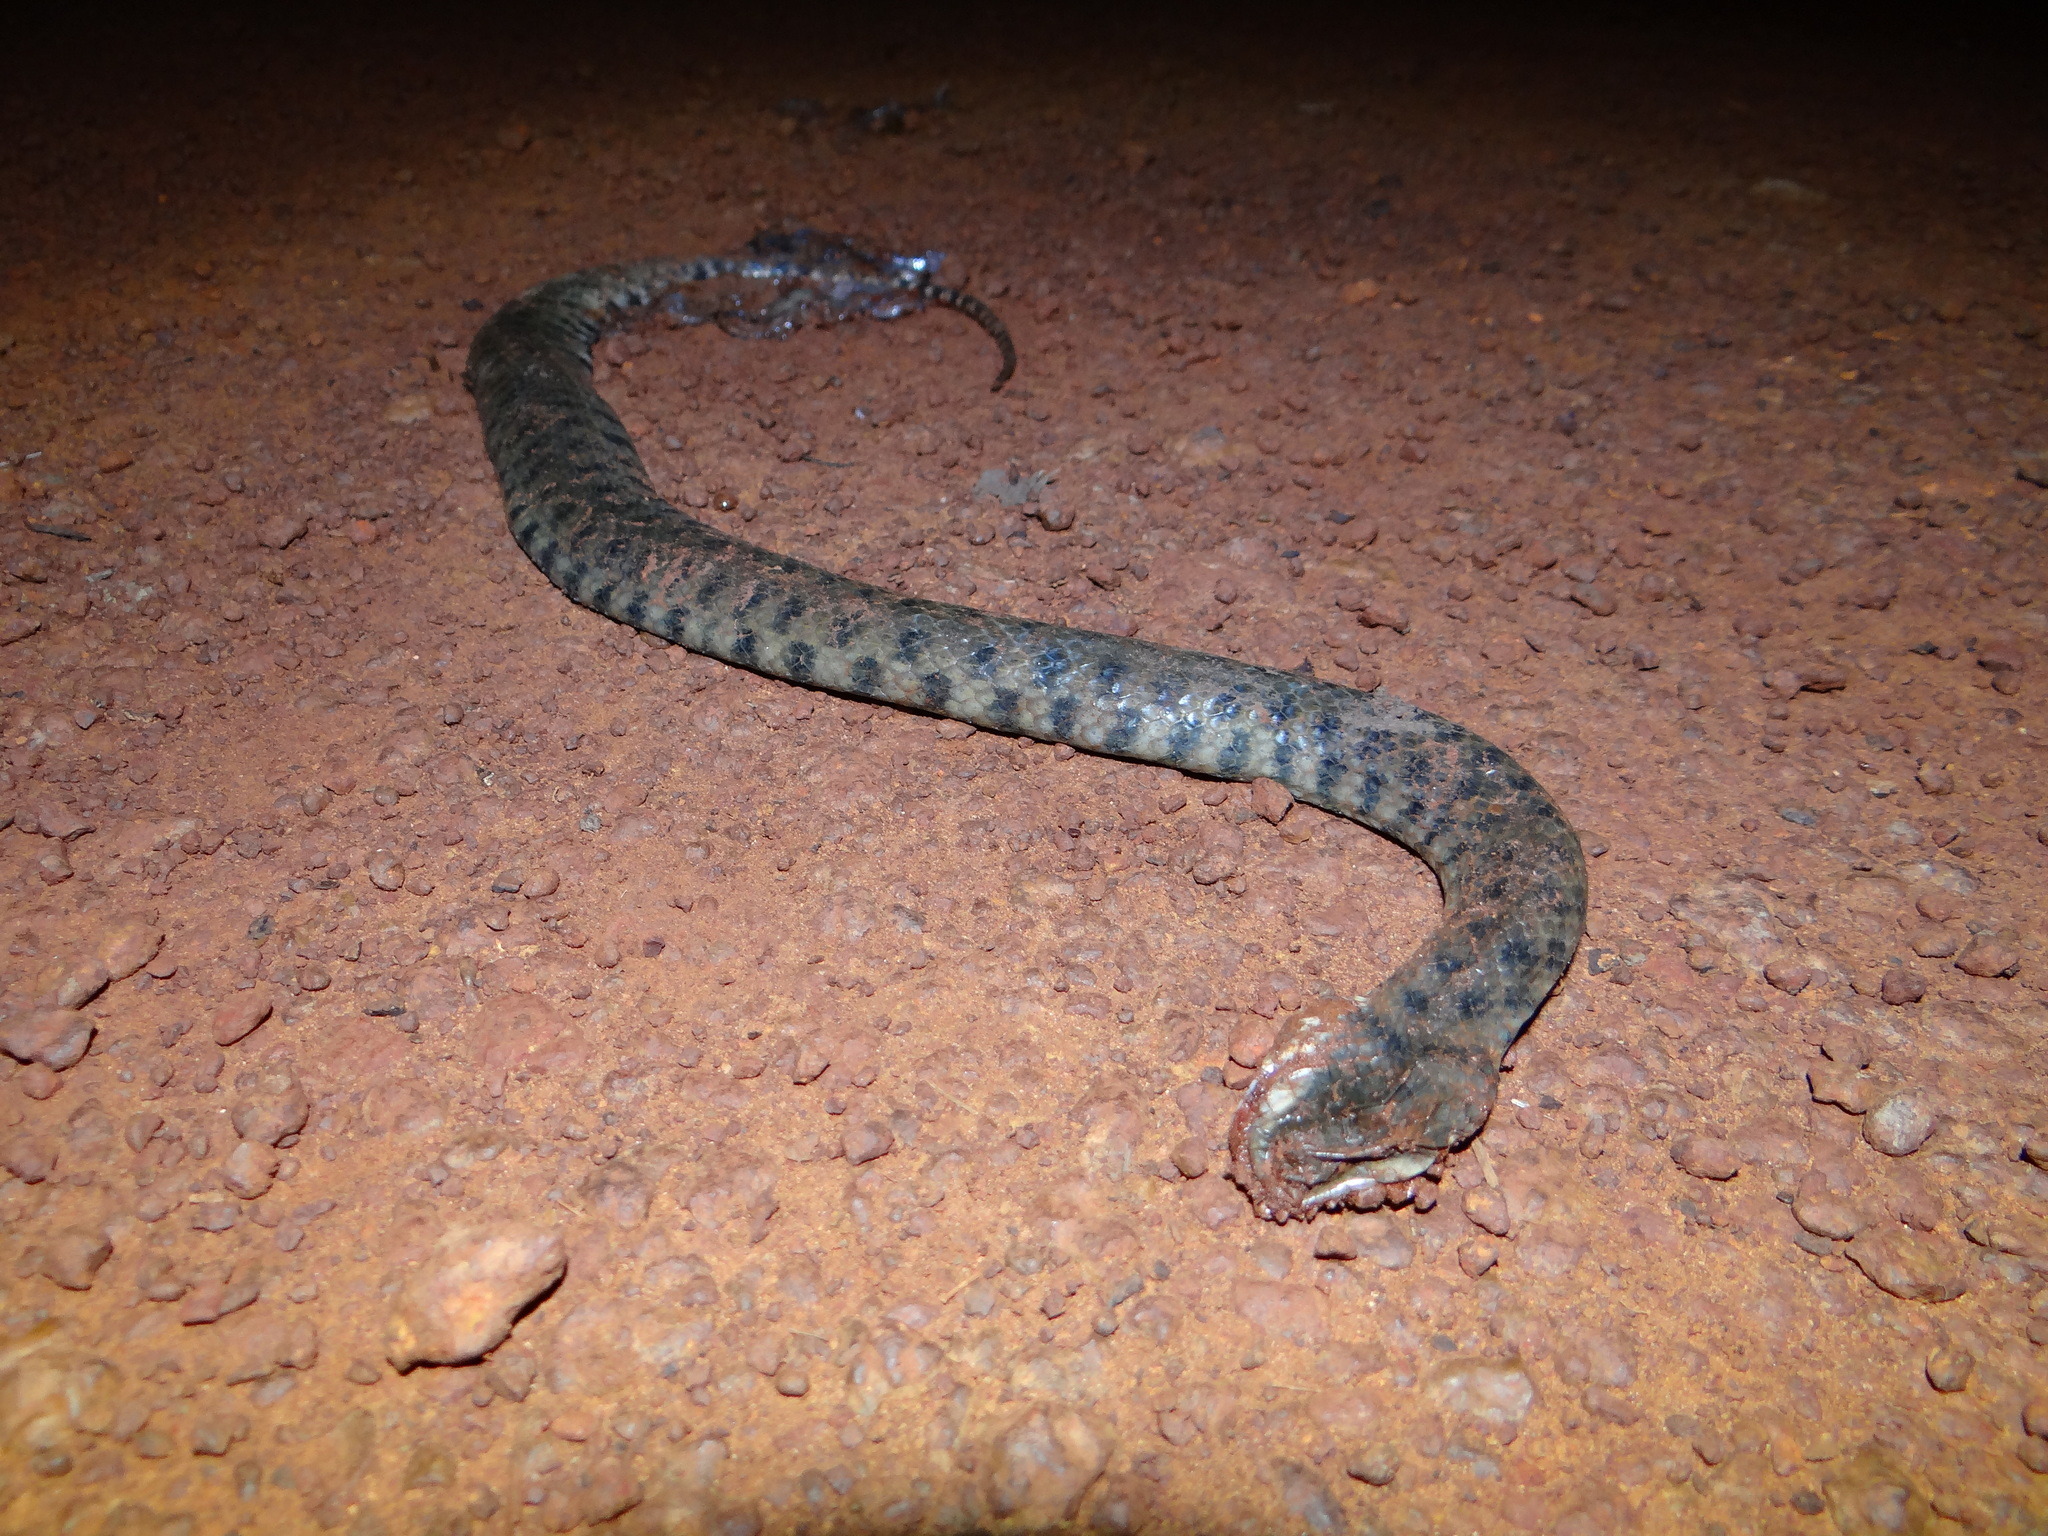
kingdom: Animalia
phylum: Chordata
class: Squamata
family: Colubridae
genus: Helicops
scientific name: Helicops leopardinus
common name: Leopard keelback
